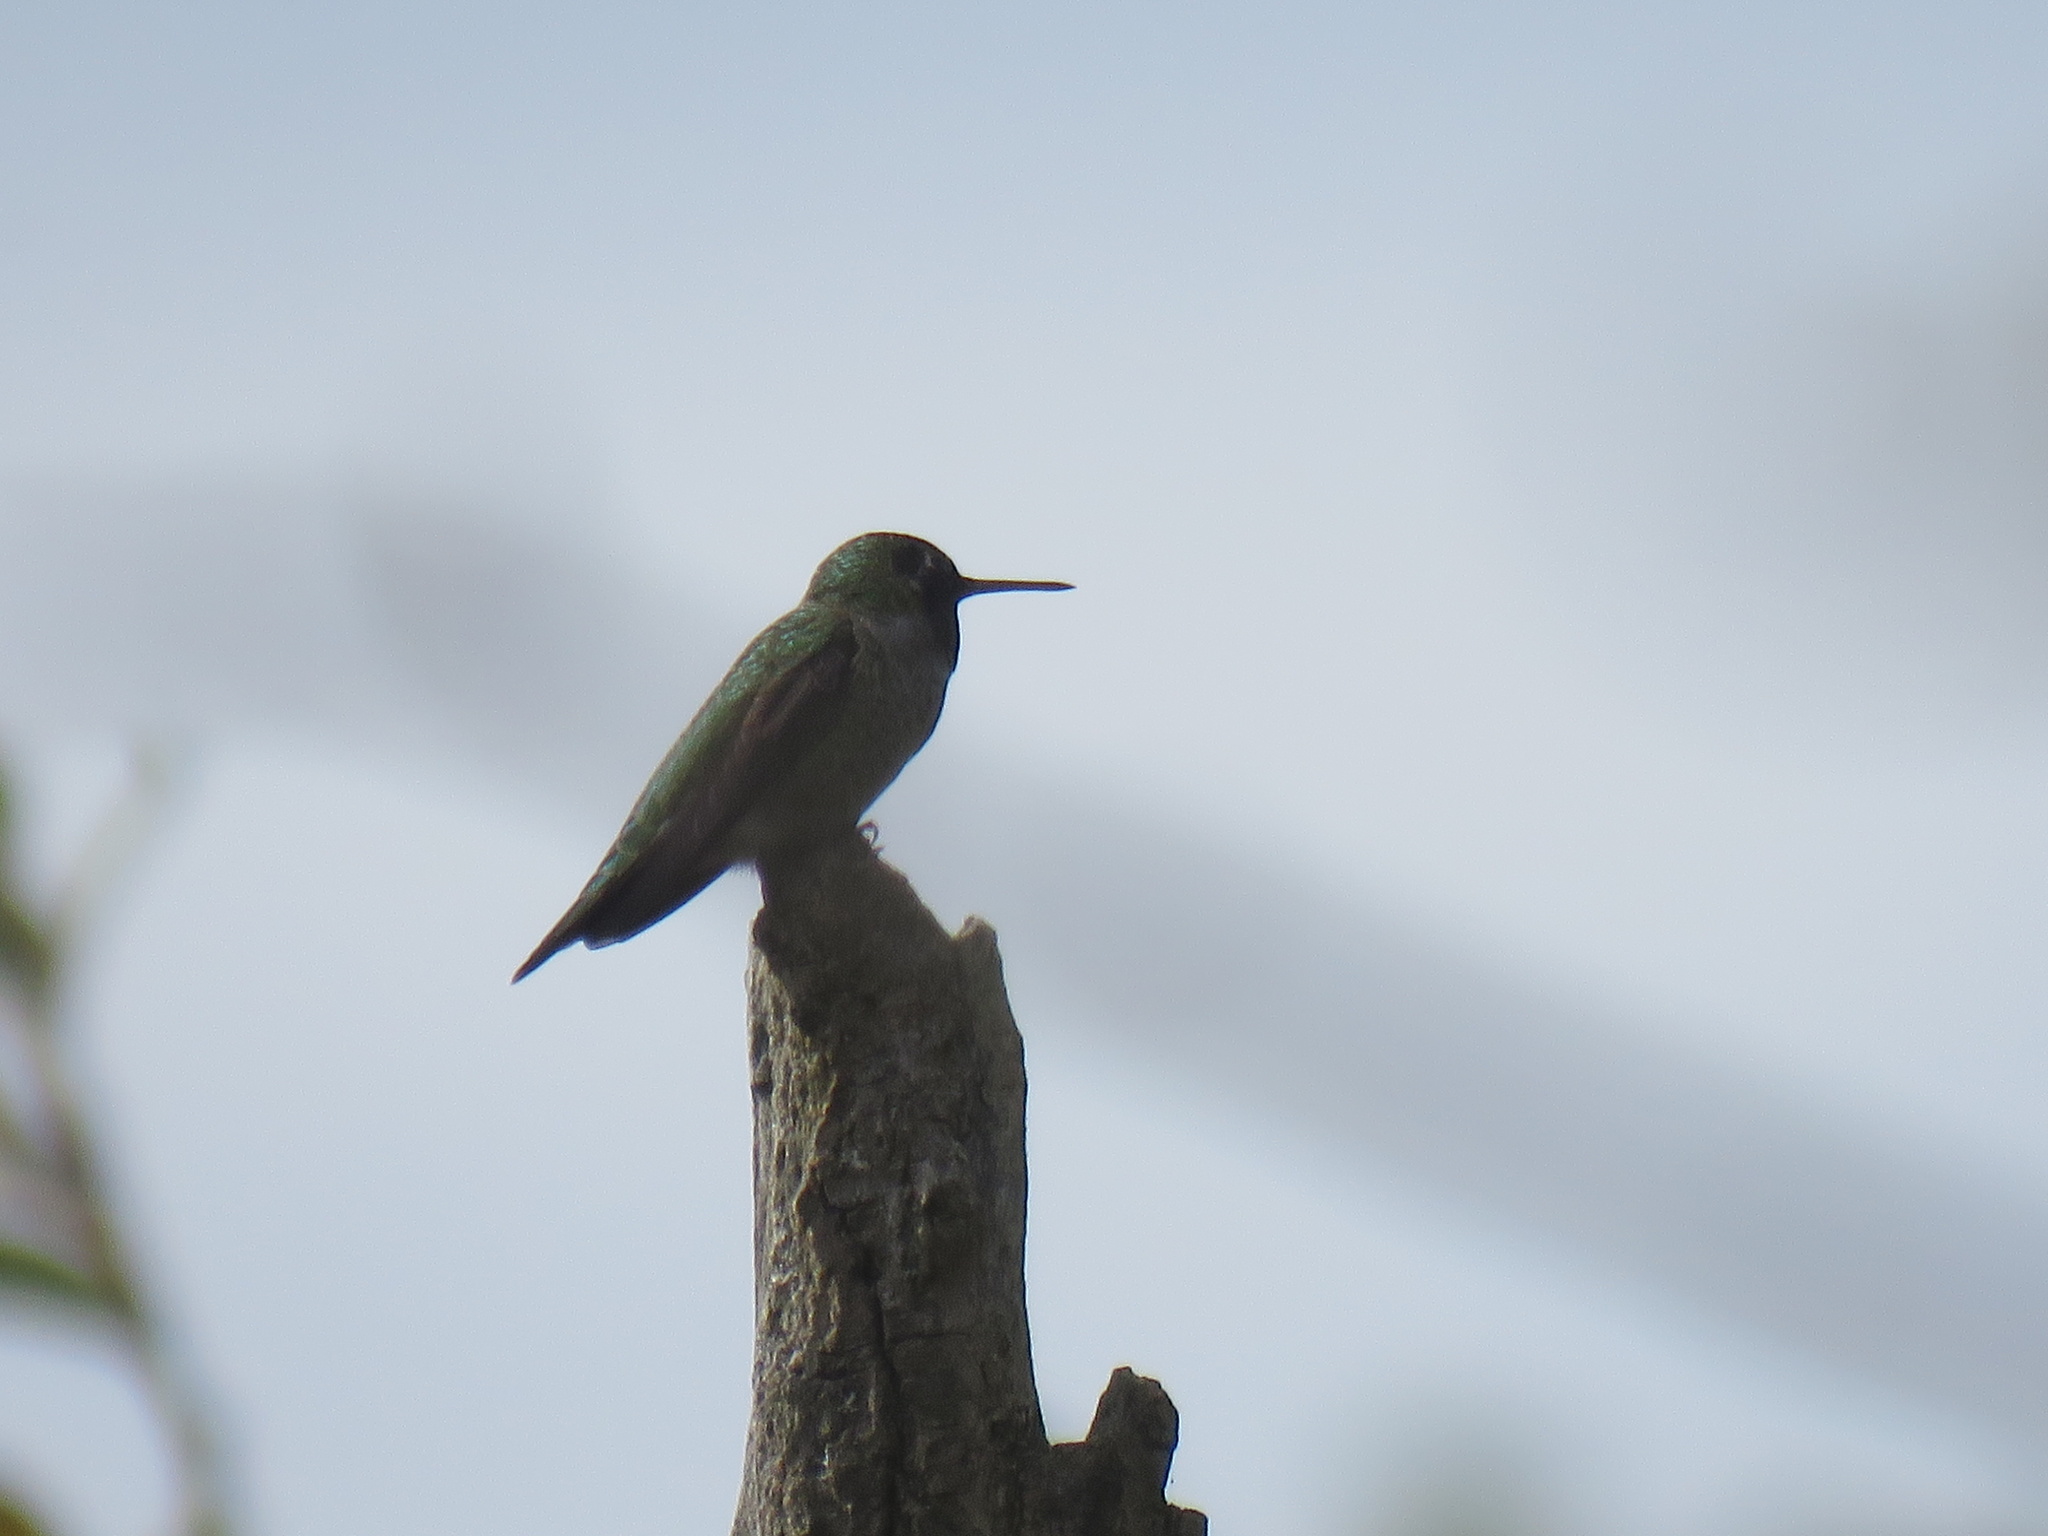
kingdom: Animalia
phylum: Chordata
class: Aves
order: Apodiformes
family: Trochilidae
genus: Calypte
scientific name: Calypte anna
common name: Anna's hummingbird
